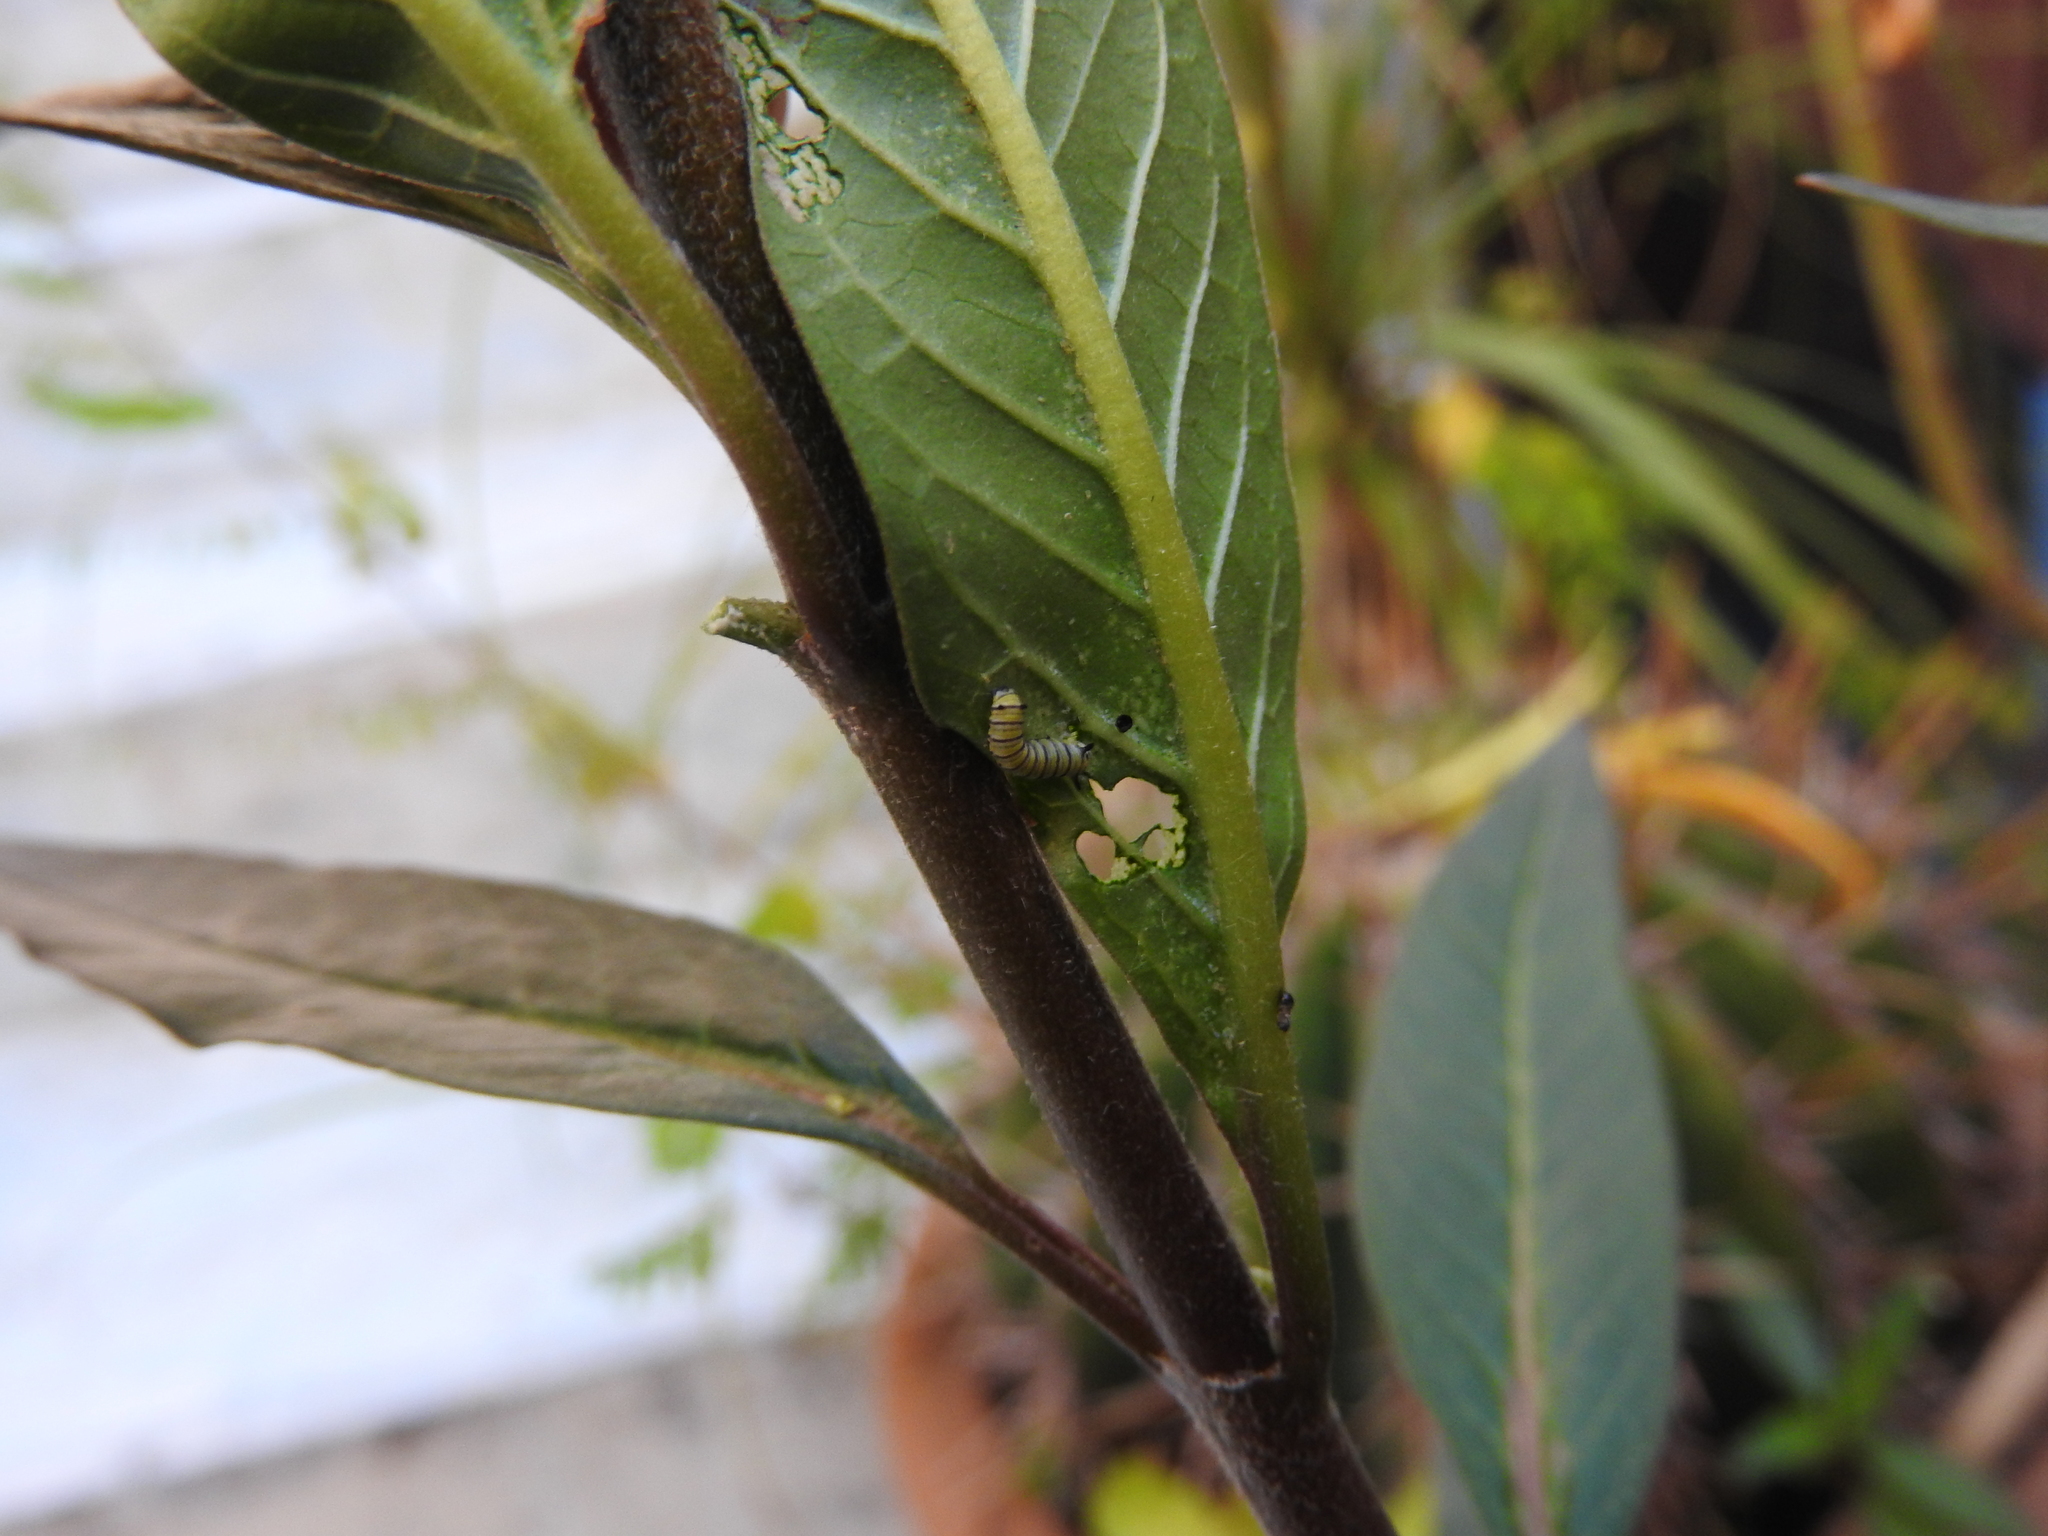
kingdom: Animalia
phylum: Arthropoda
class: Insecta
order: Lepidoptera
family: Nymphalidae
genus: Danaus
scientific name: Danaus plexippus
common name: Monarch
